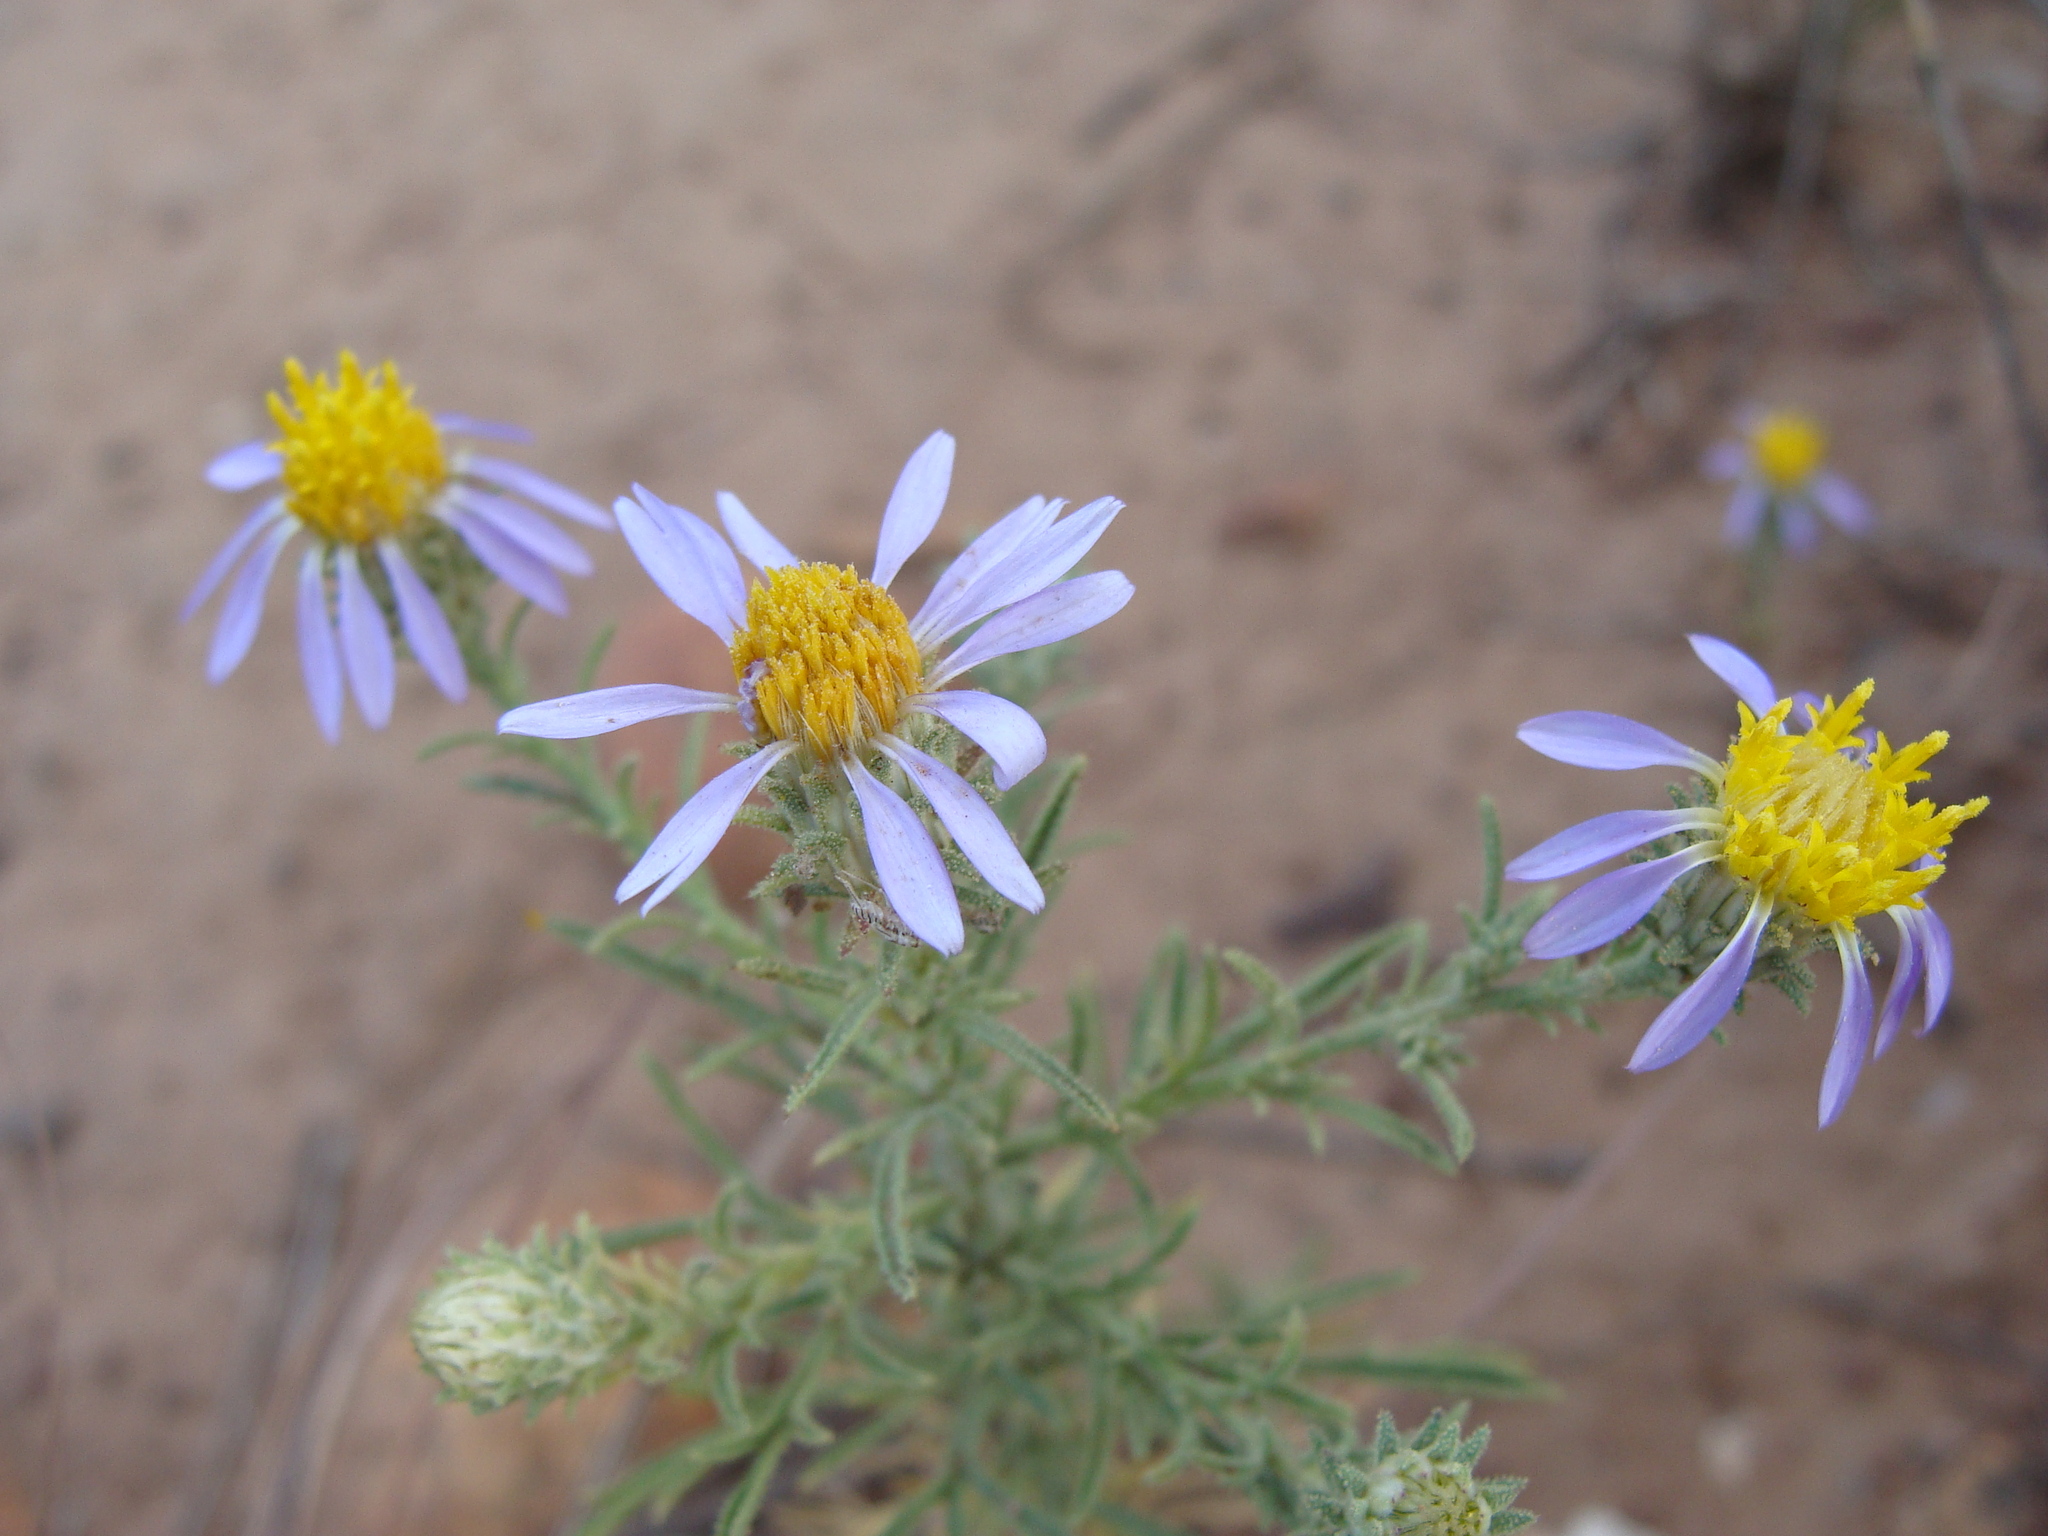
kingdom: Plantae
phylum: Tracheophyta
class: Magnoliopsida
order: Asterales
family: Asteraceae
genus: Machaeranthera
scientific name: Machaeranthera tagetina
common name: Mesa tansy-aster
